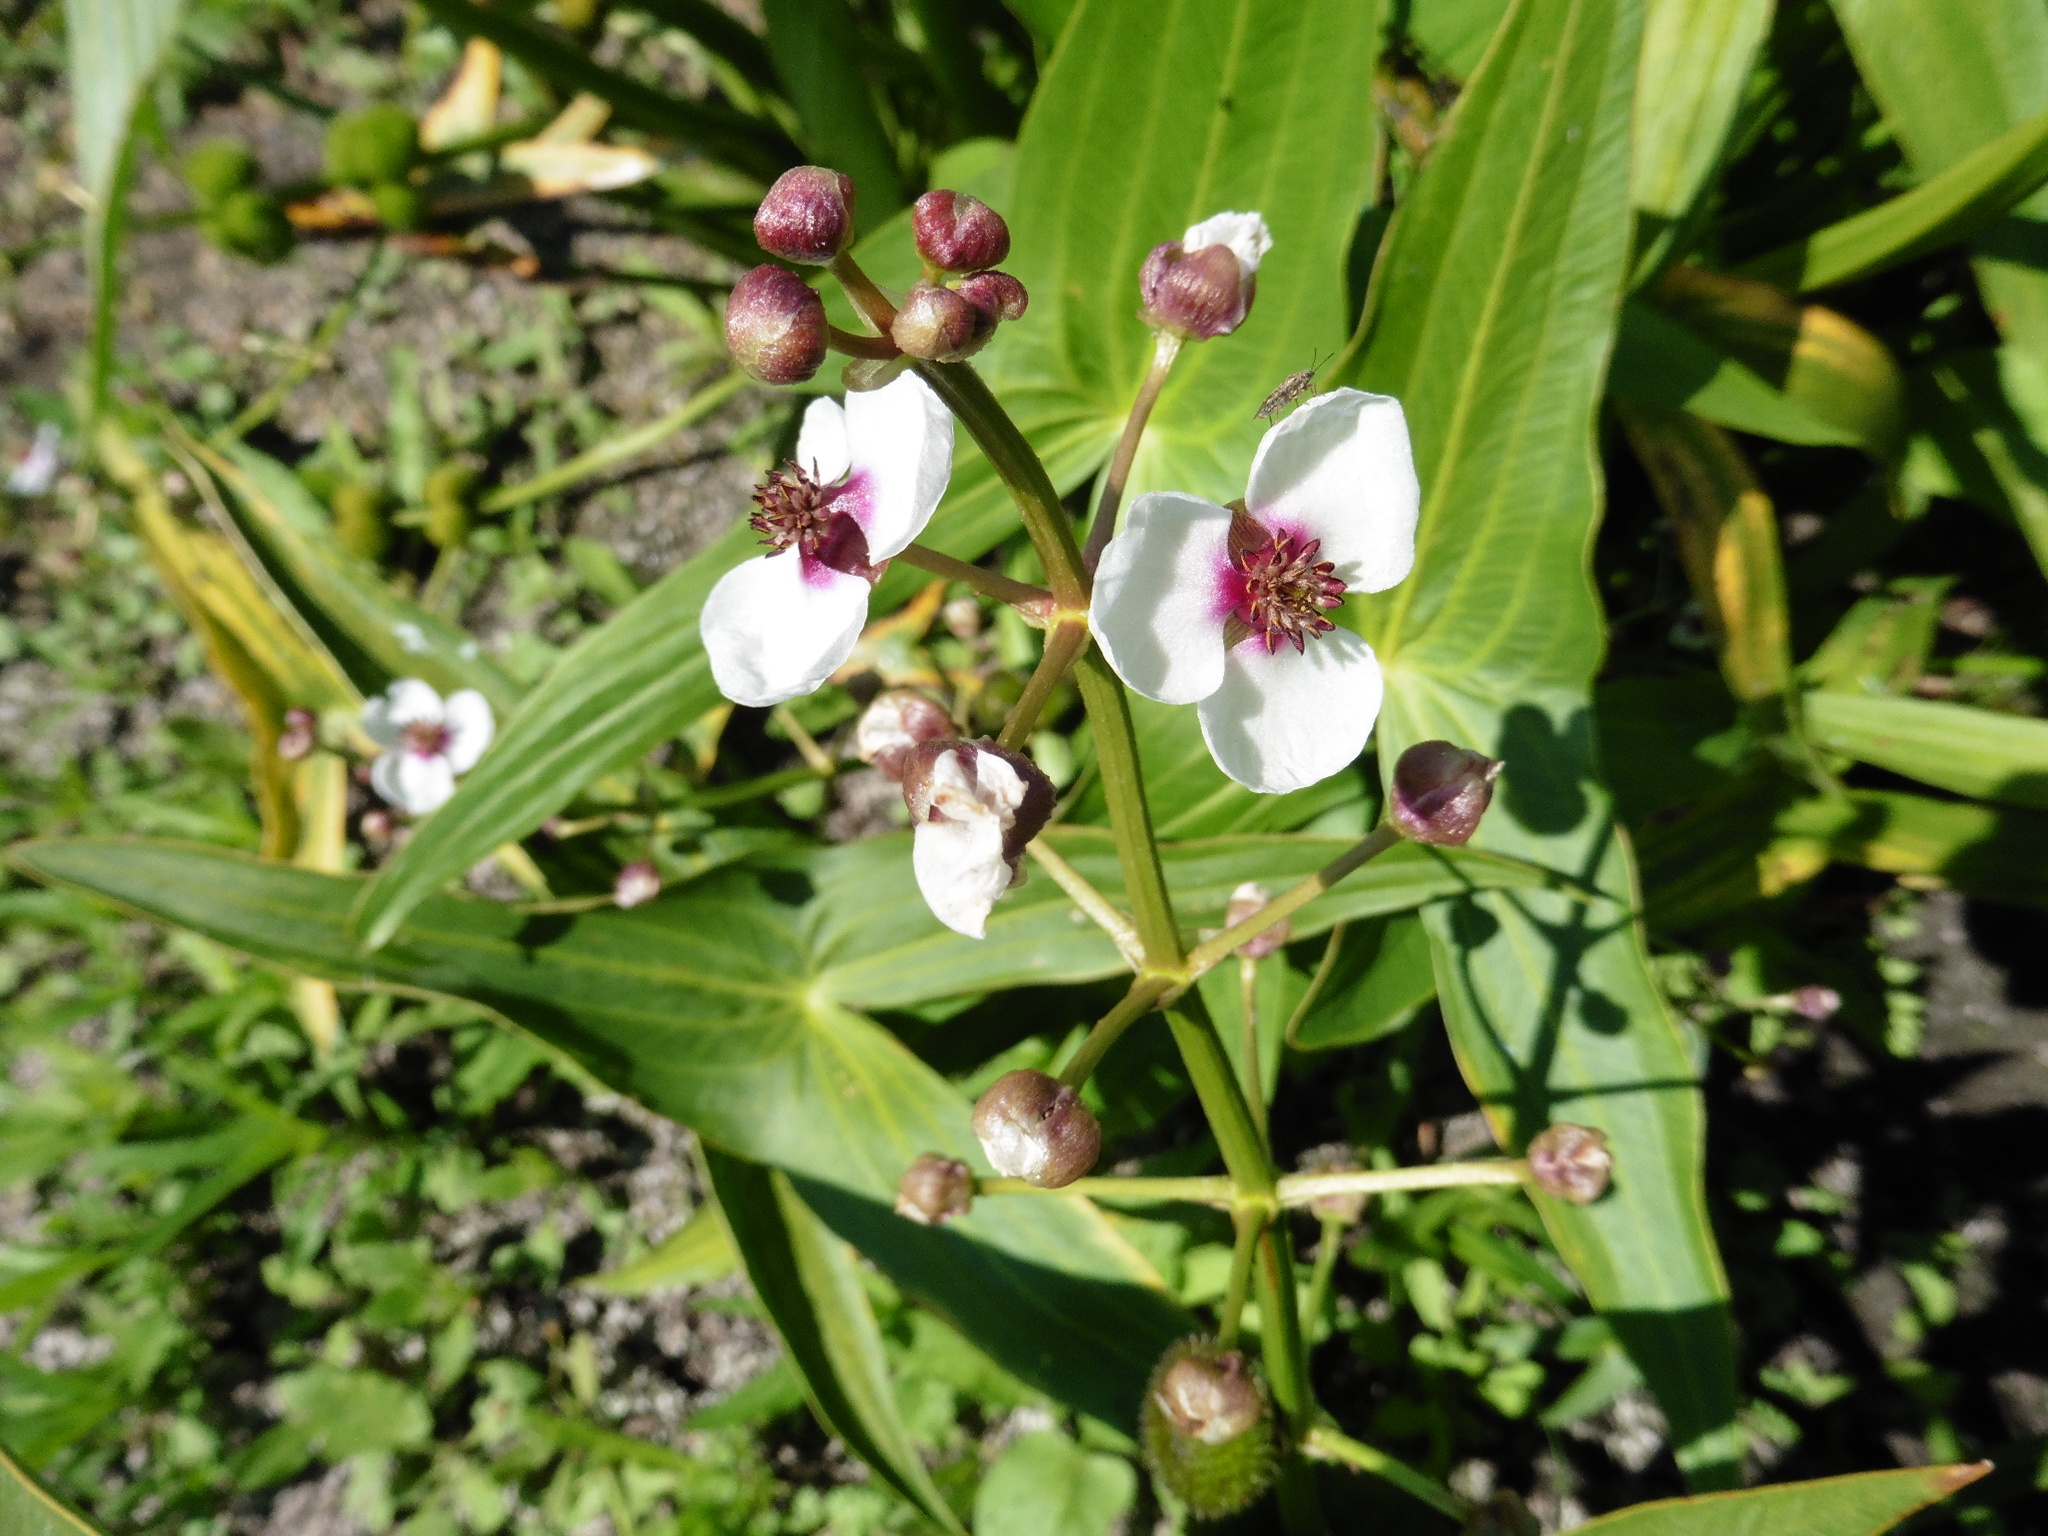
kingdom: Plantae
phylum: Tracheophyta
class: Liliopsida
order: Alismatales
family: Alismataceae
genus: Sagittaria
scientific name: Sagittaria sagittifolia
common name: Arrowhead
